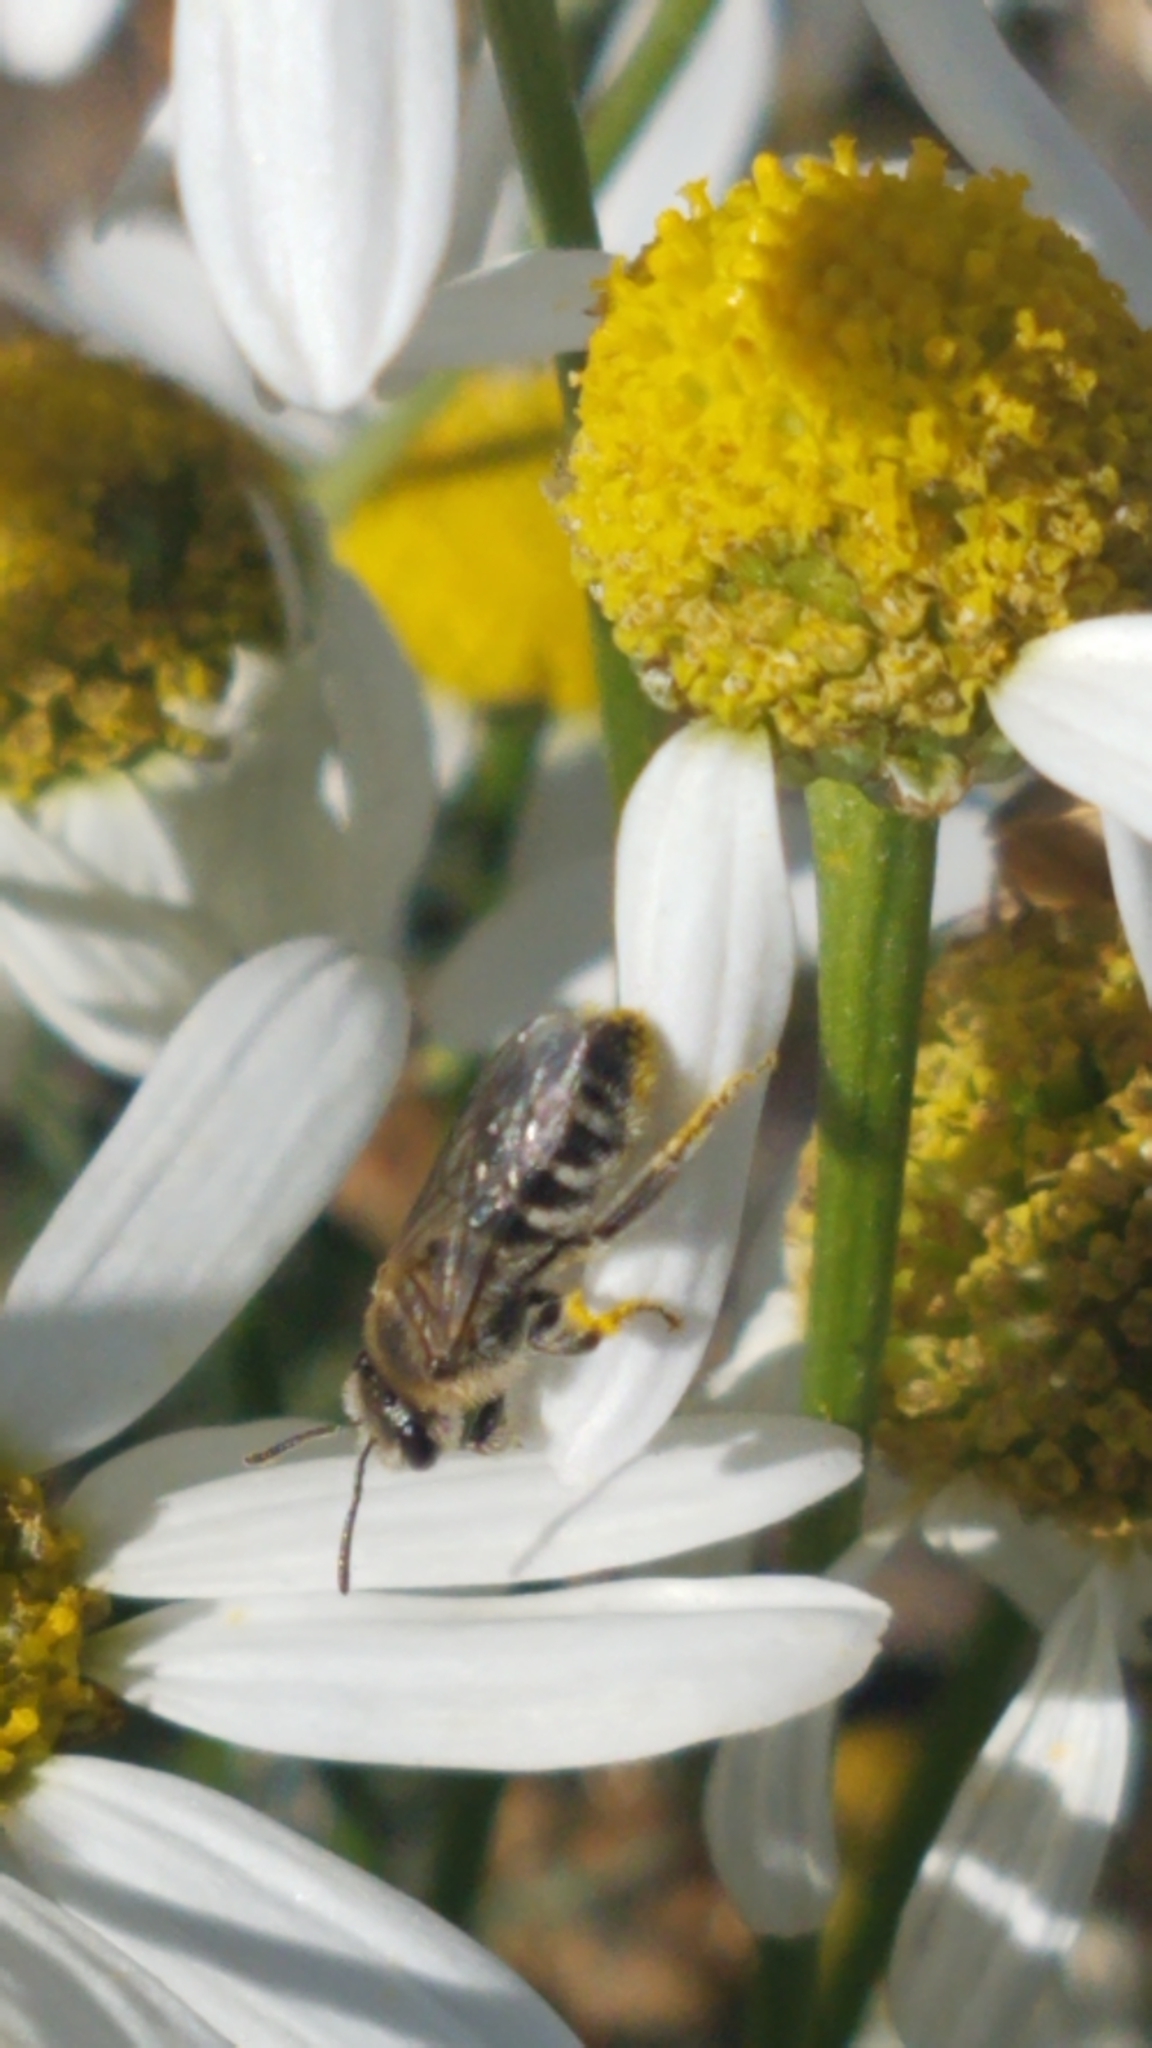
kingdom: Animalia
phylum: Arthropoda
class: Insecta
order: Hymenoptera
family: Halictidae
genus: Lasioglossum
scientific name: Lasioglossum sisymbrii
